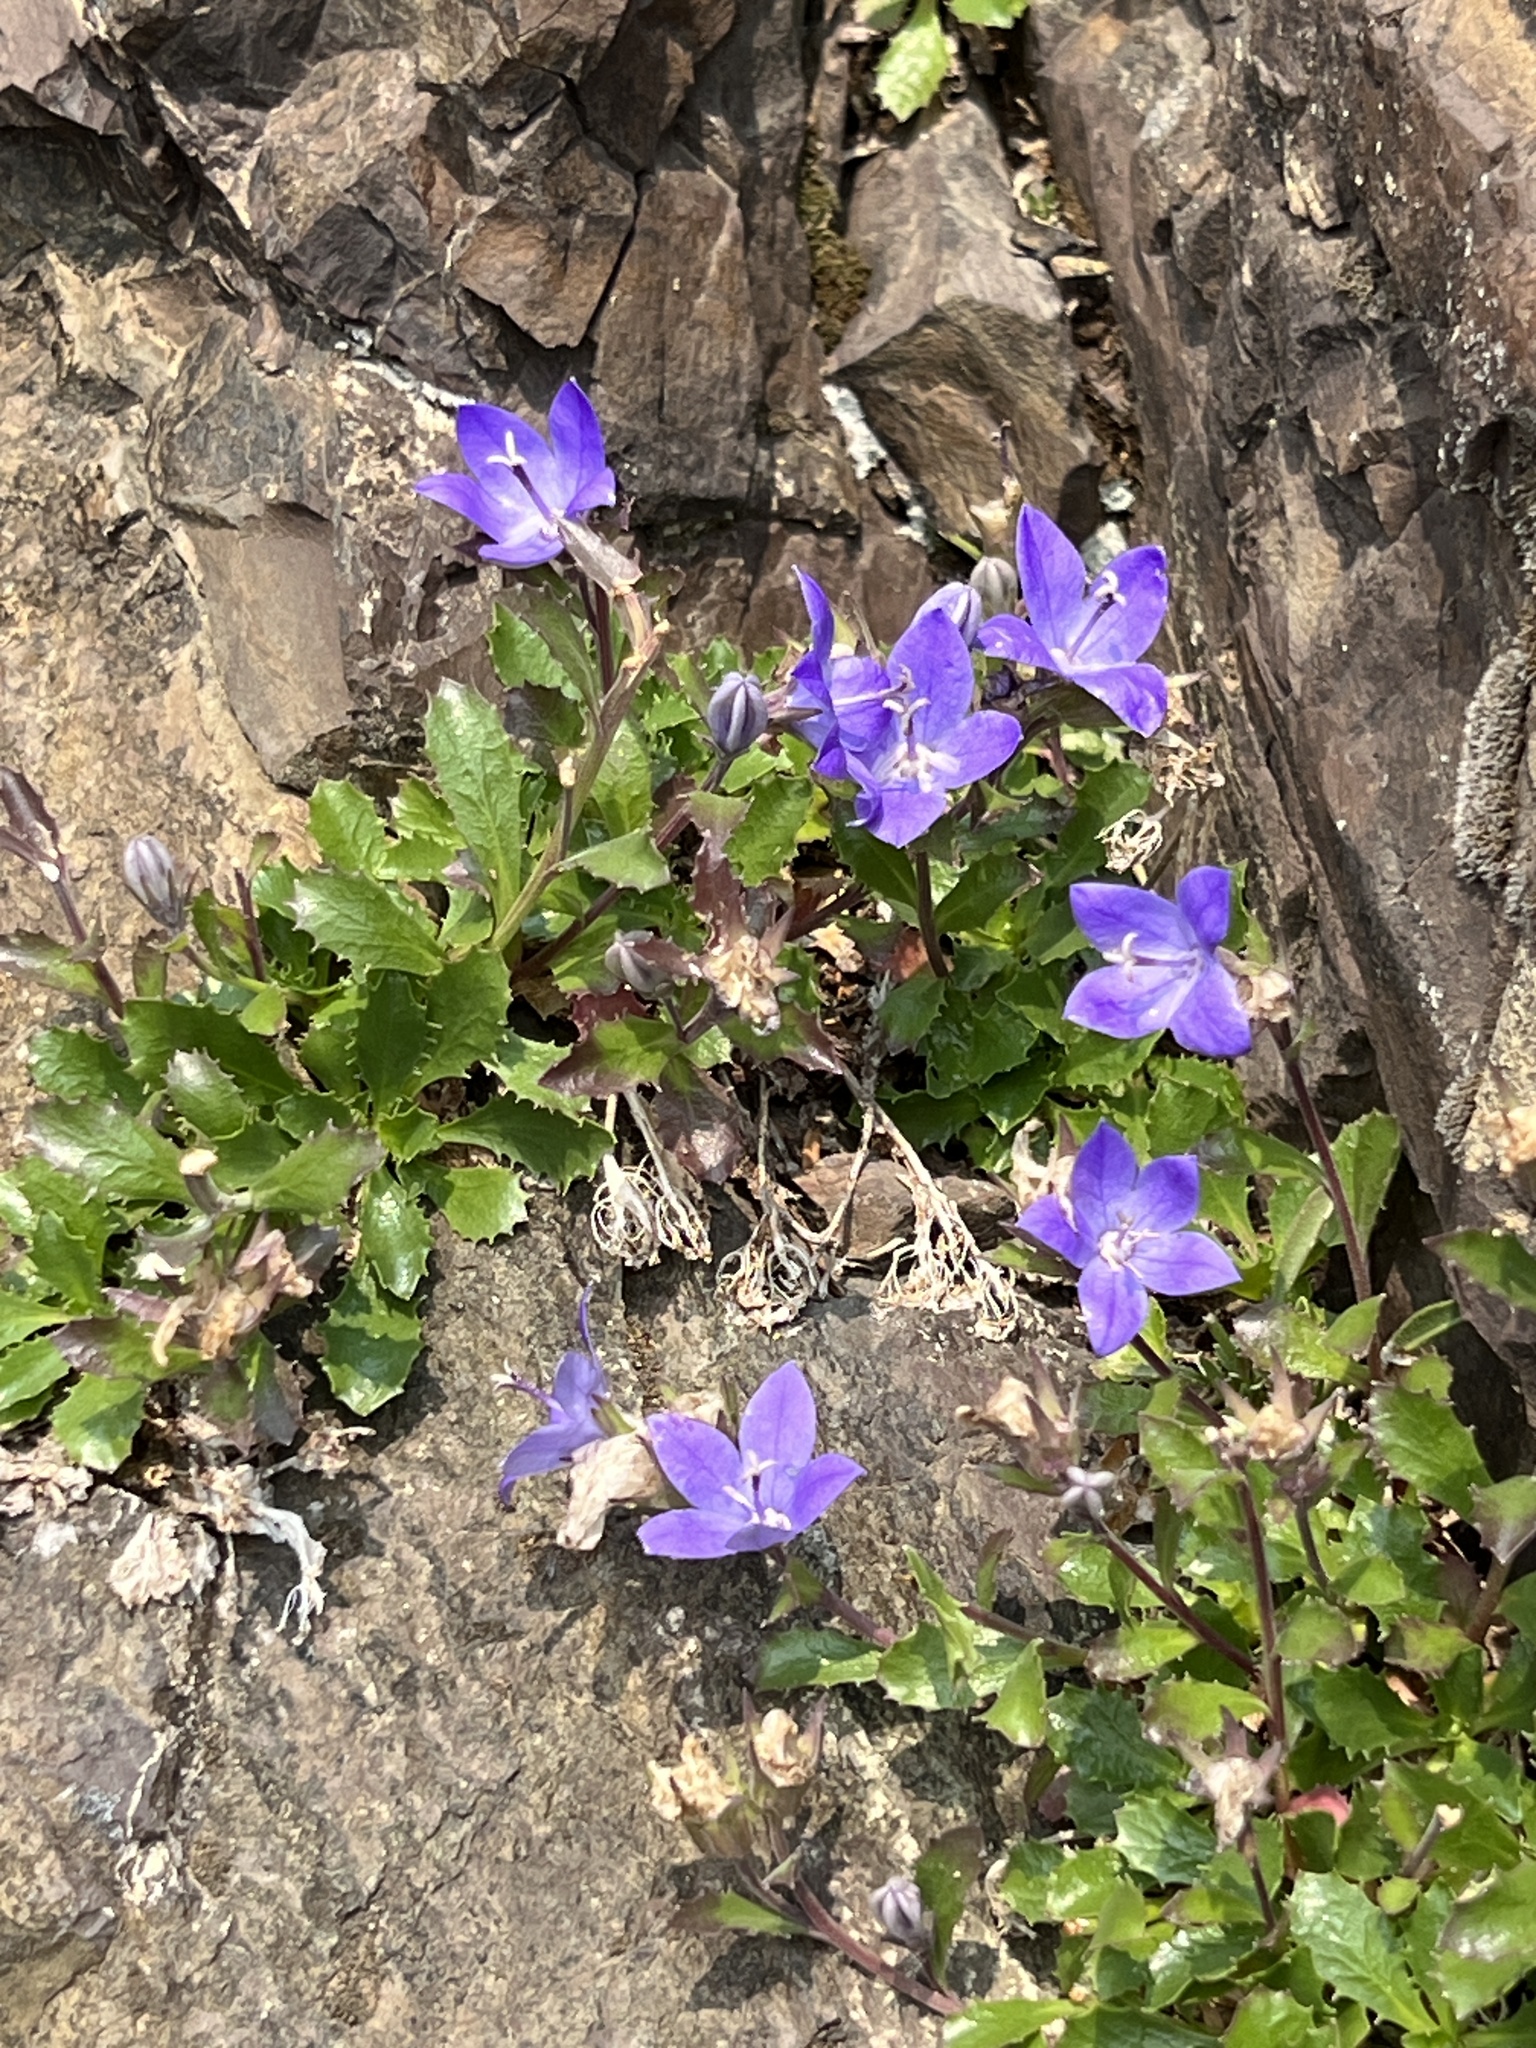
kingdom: Plantae
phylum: Tracheophyta
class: Magnoliopsida
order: Asterales
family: Campanulaceae
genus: Campanula
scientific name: Campanula piperi
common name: Olympic bellflower
